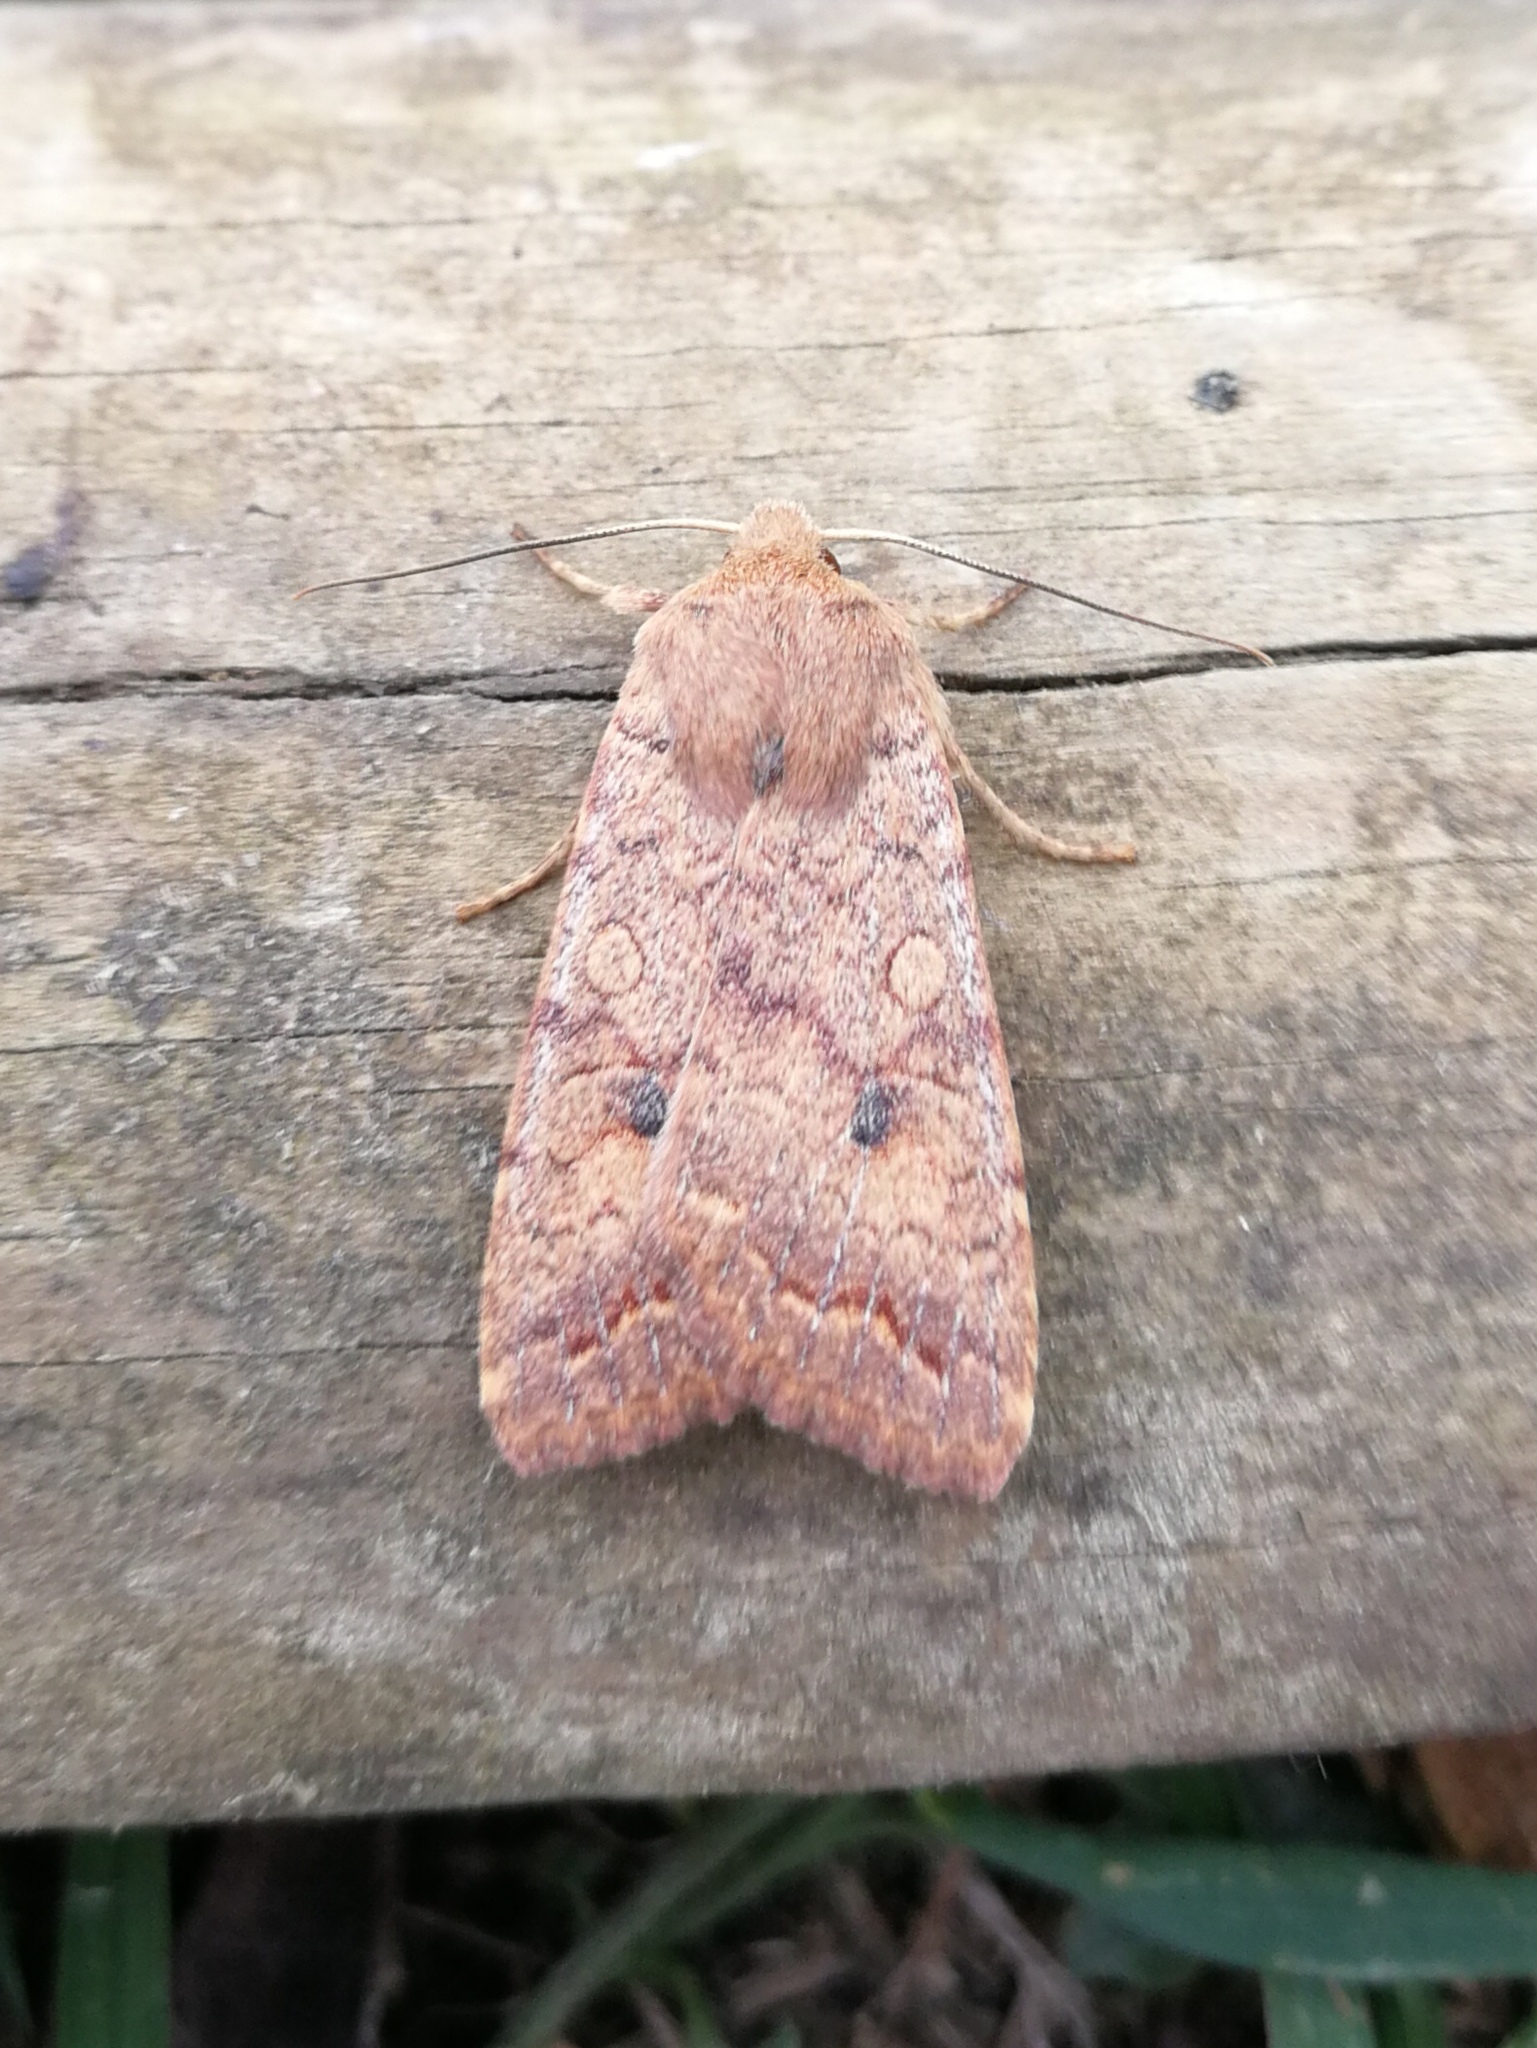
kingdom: Animalia
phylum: Arthropoda
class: Insecta
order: Lepidoptera
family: Noctuidae
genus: Sunira
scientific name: Sunira circellaris
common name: Brick
